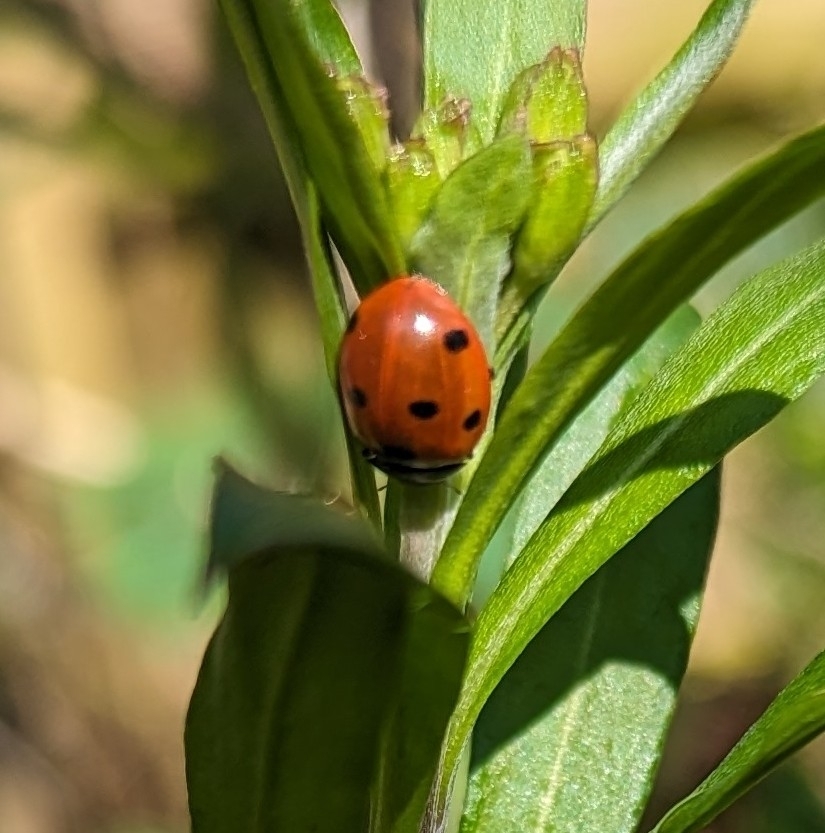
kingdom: Animalia
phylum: Arthropoda
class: Insecta
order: Coleoptera
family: Coccinellidae
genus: Coccinella
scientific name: Coccinella septempunctata
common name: Sevenspotted lady beetle
